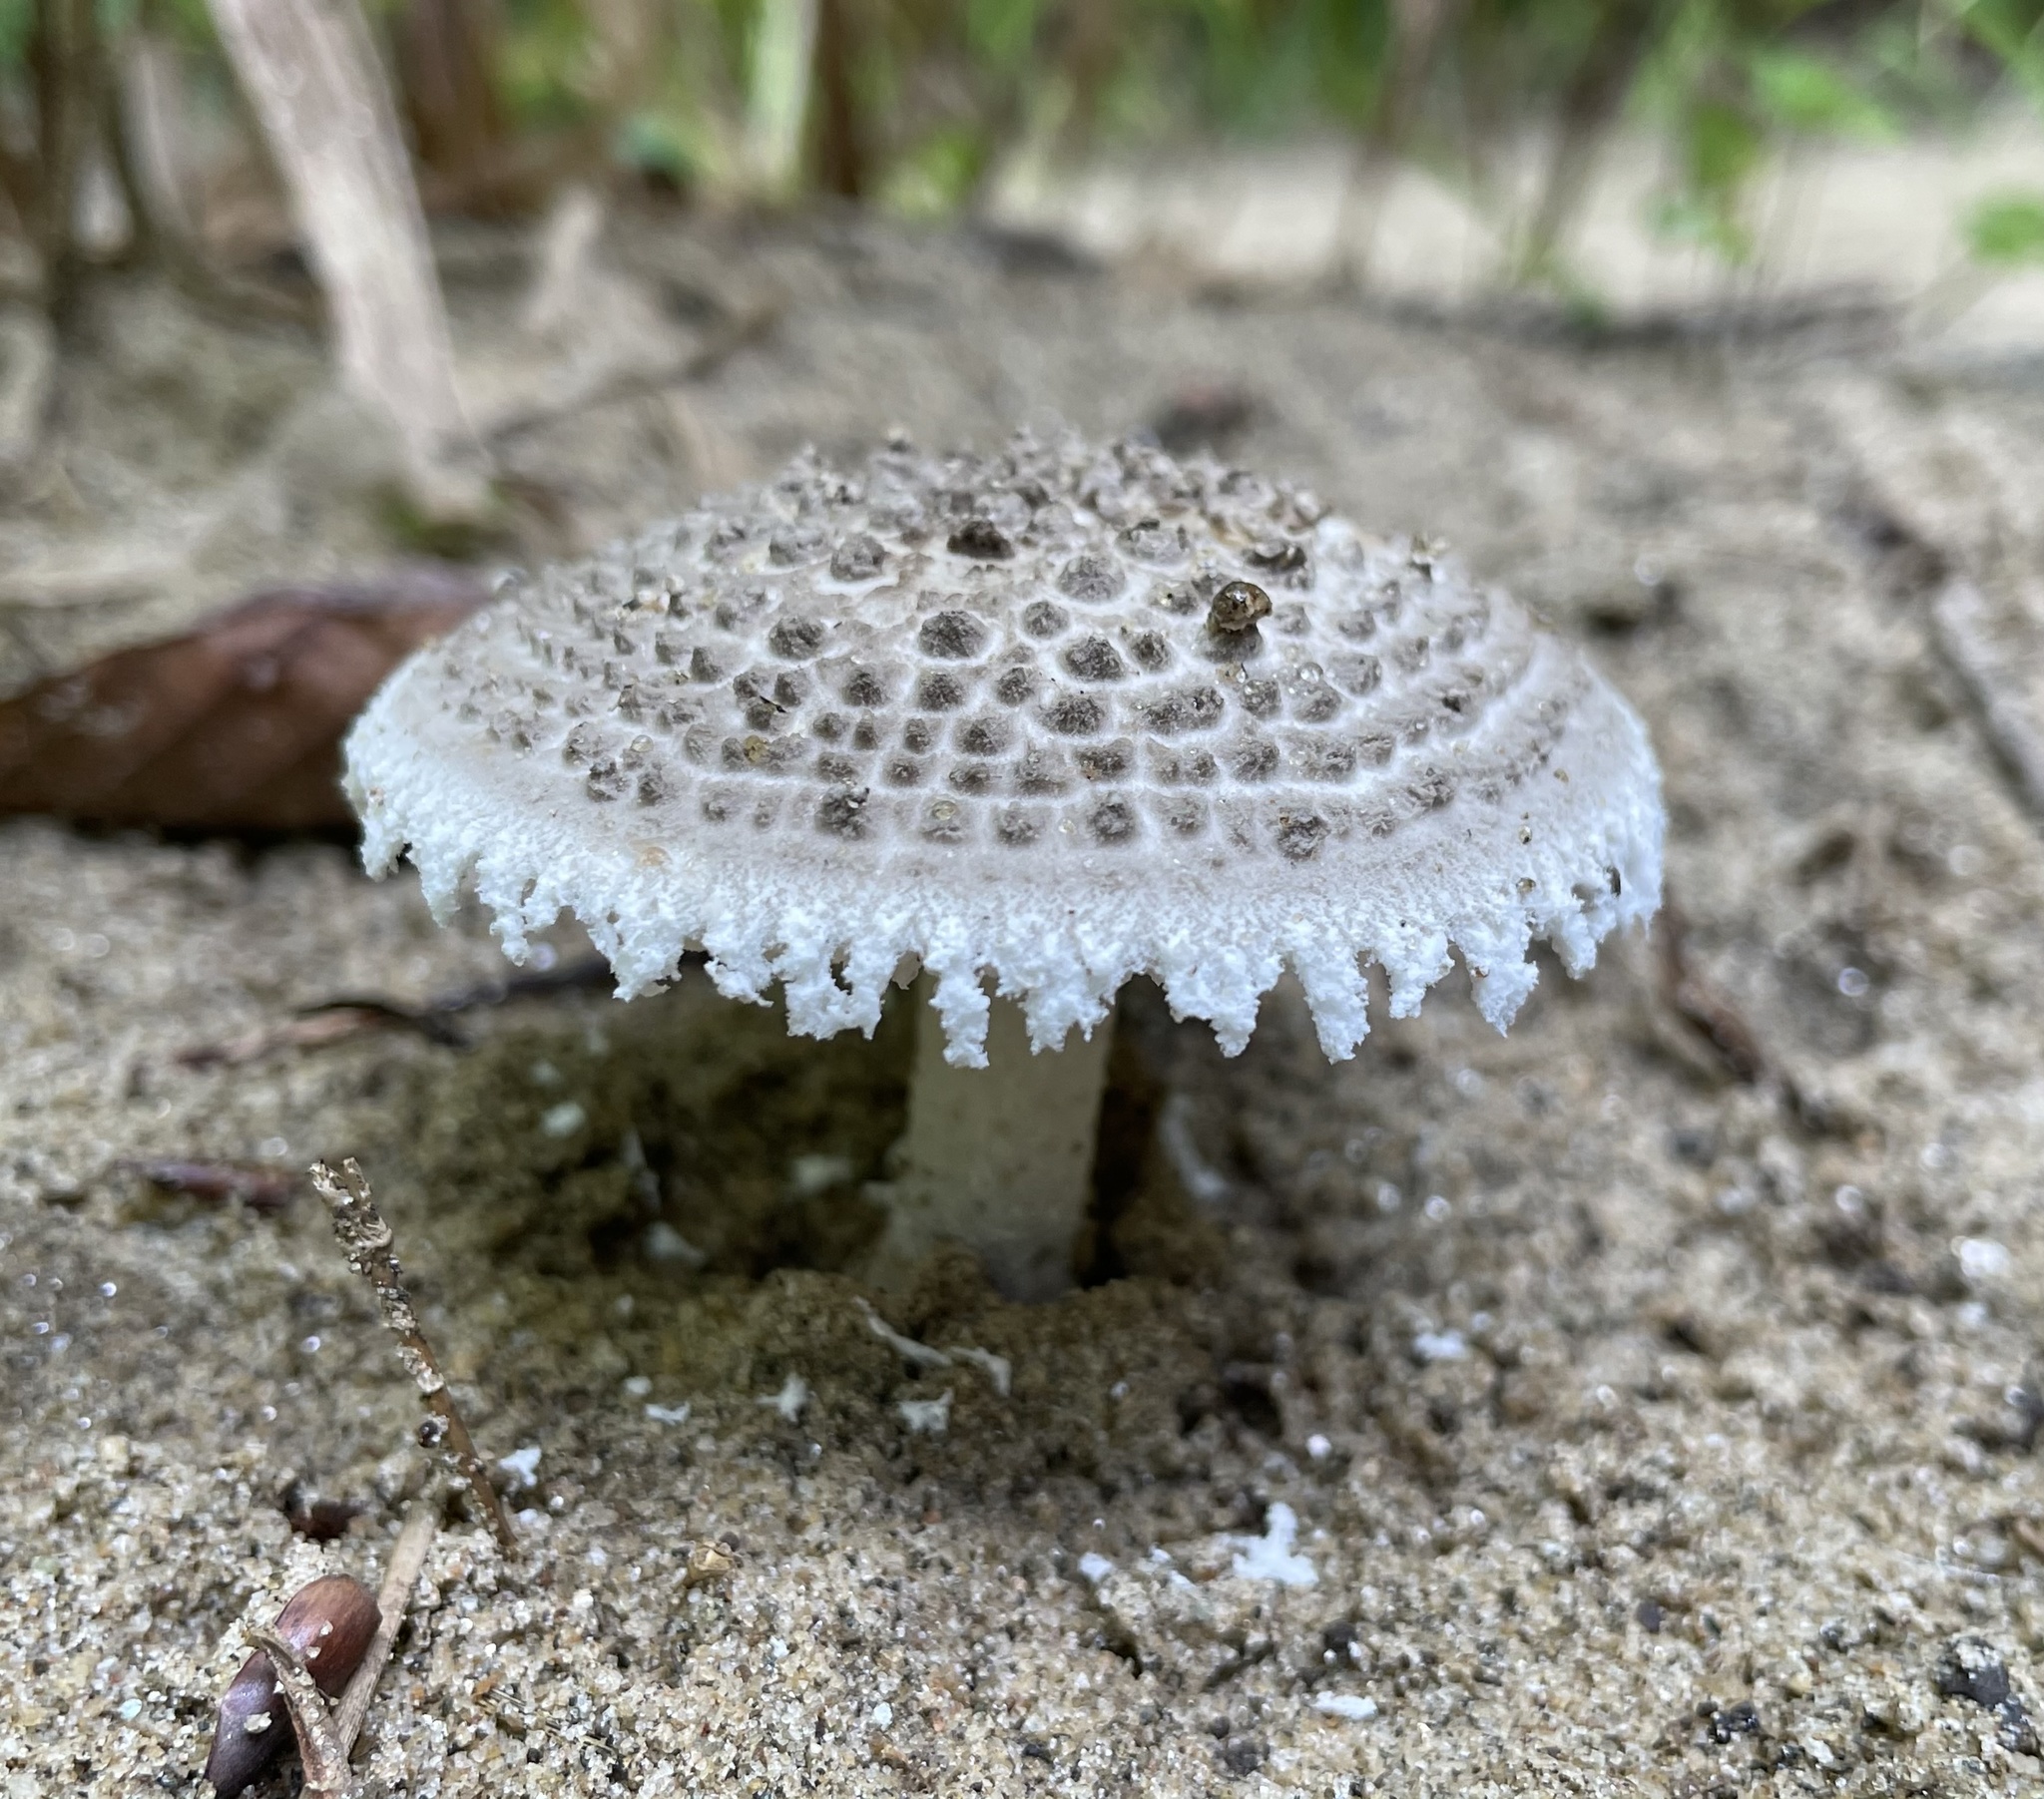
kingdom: Fungi
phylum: Basidiomycota
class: Agaricomycetes
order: Agaricales
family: Amanitaceae
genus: Amanita
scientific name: Amanita onusta
